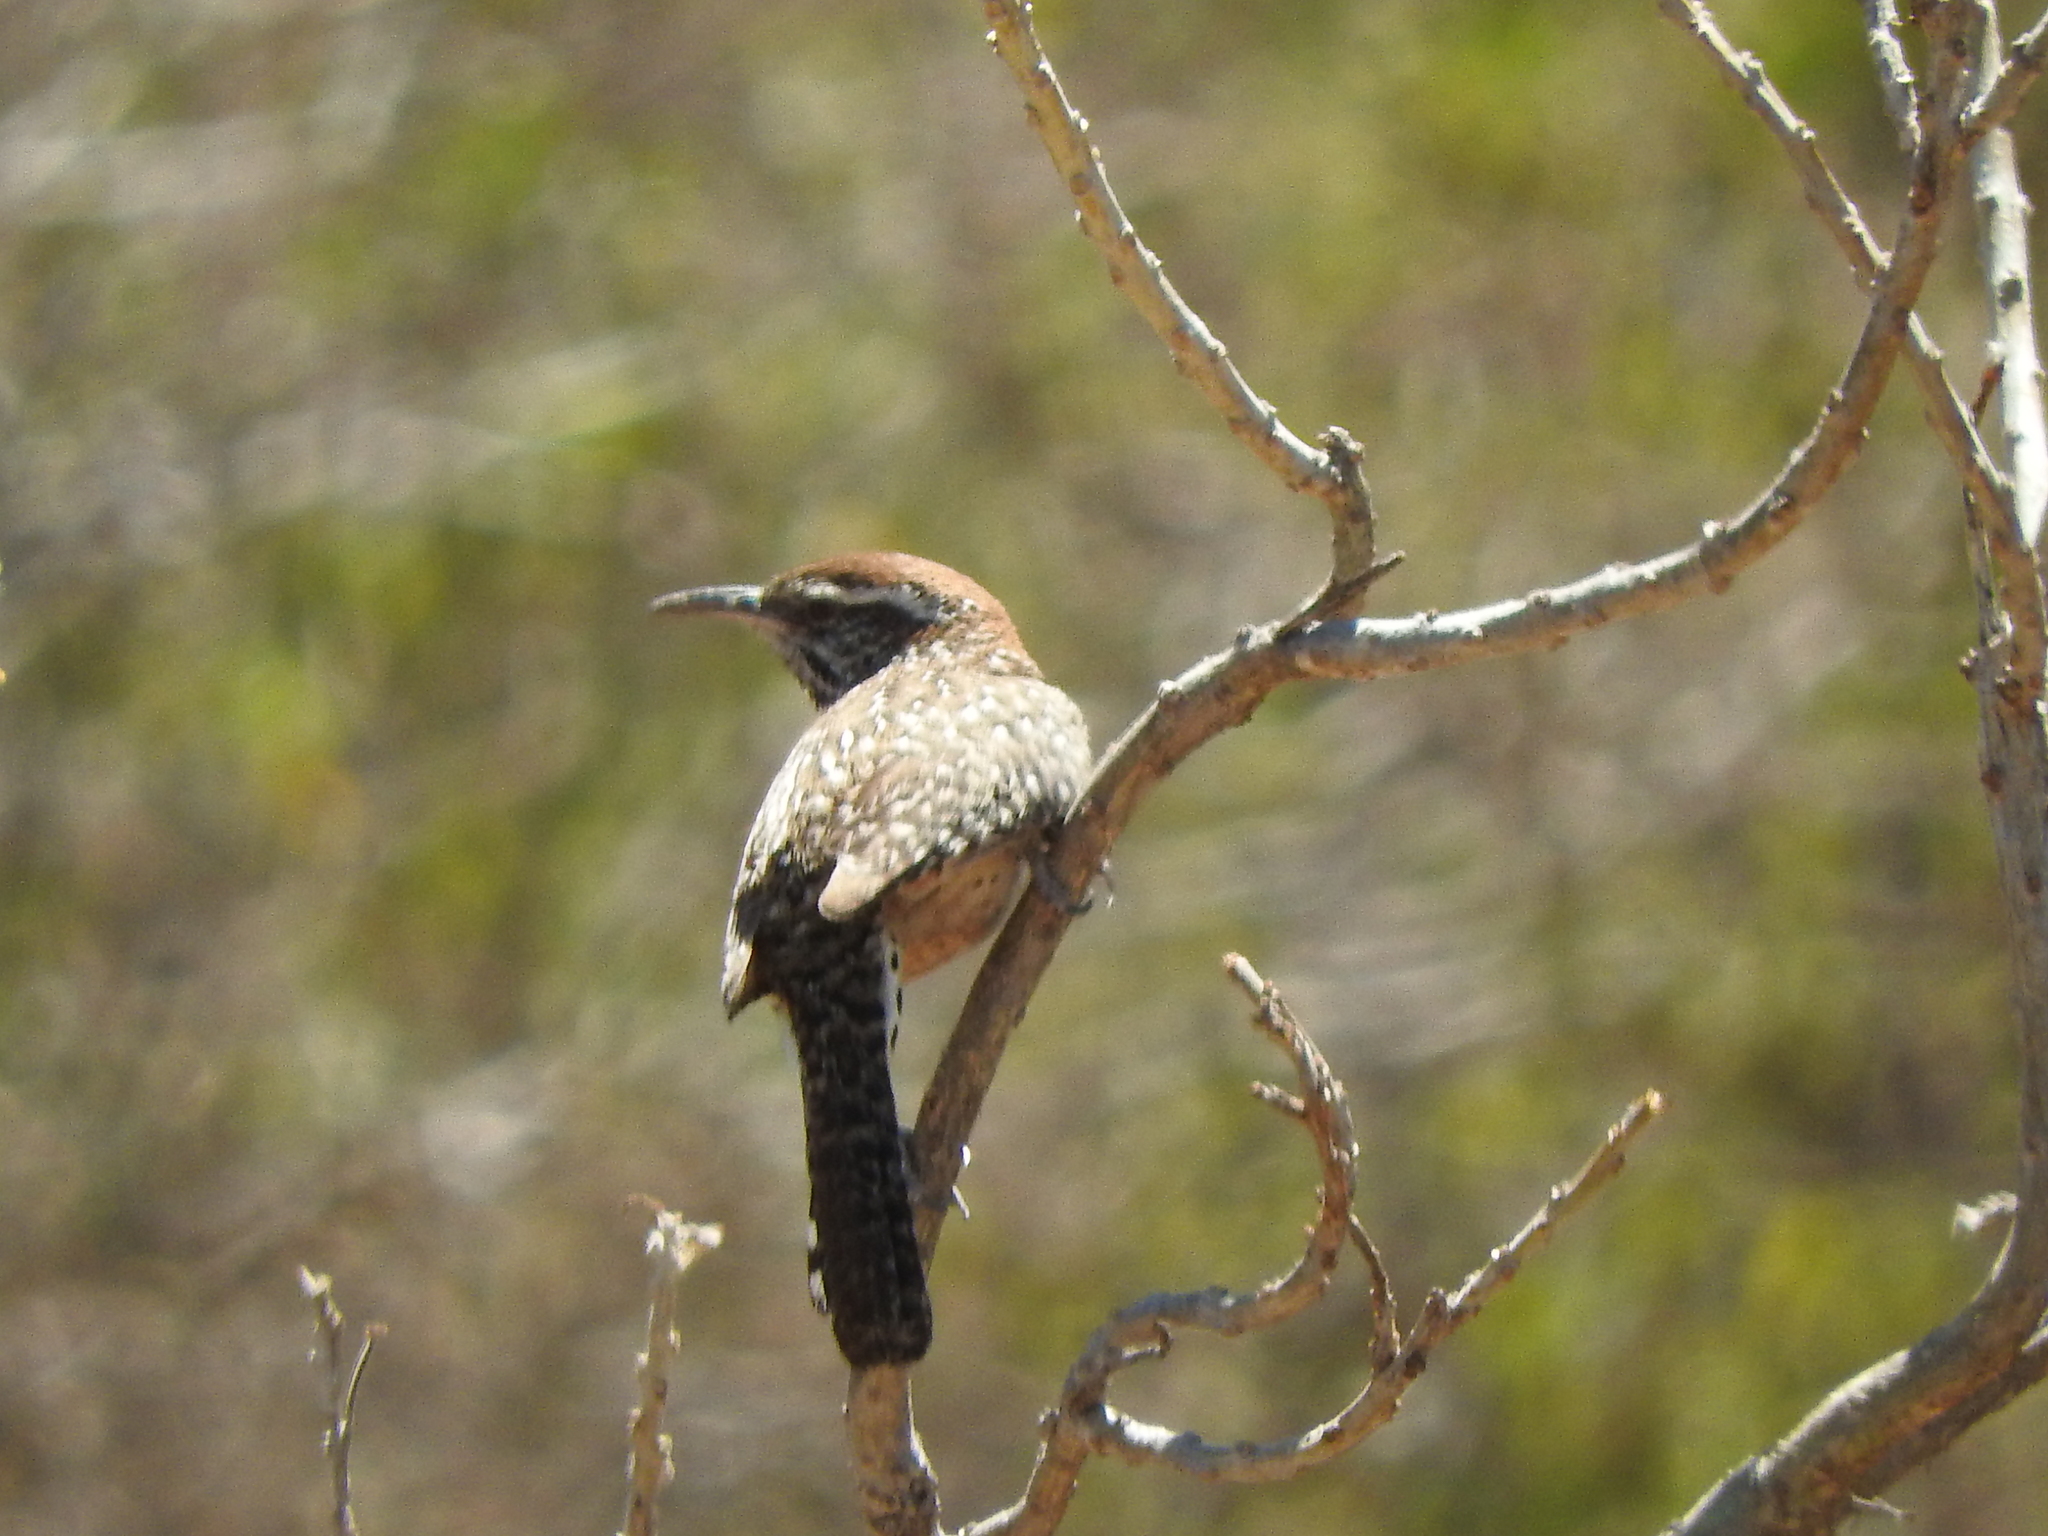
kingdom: Animalia
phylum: Chordata
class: Aves
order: Passeriformes
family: Troglodytidae
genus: Campylorhynchus
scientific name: Campylorhynchus brunneicapillus
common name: Cactus wren
